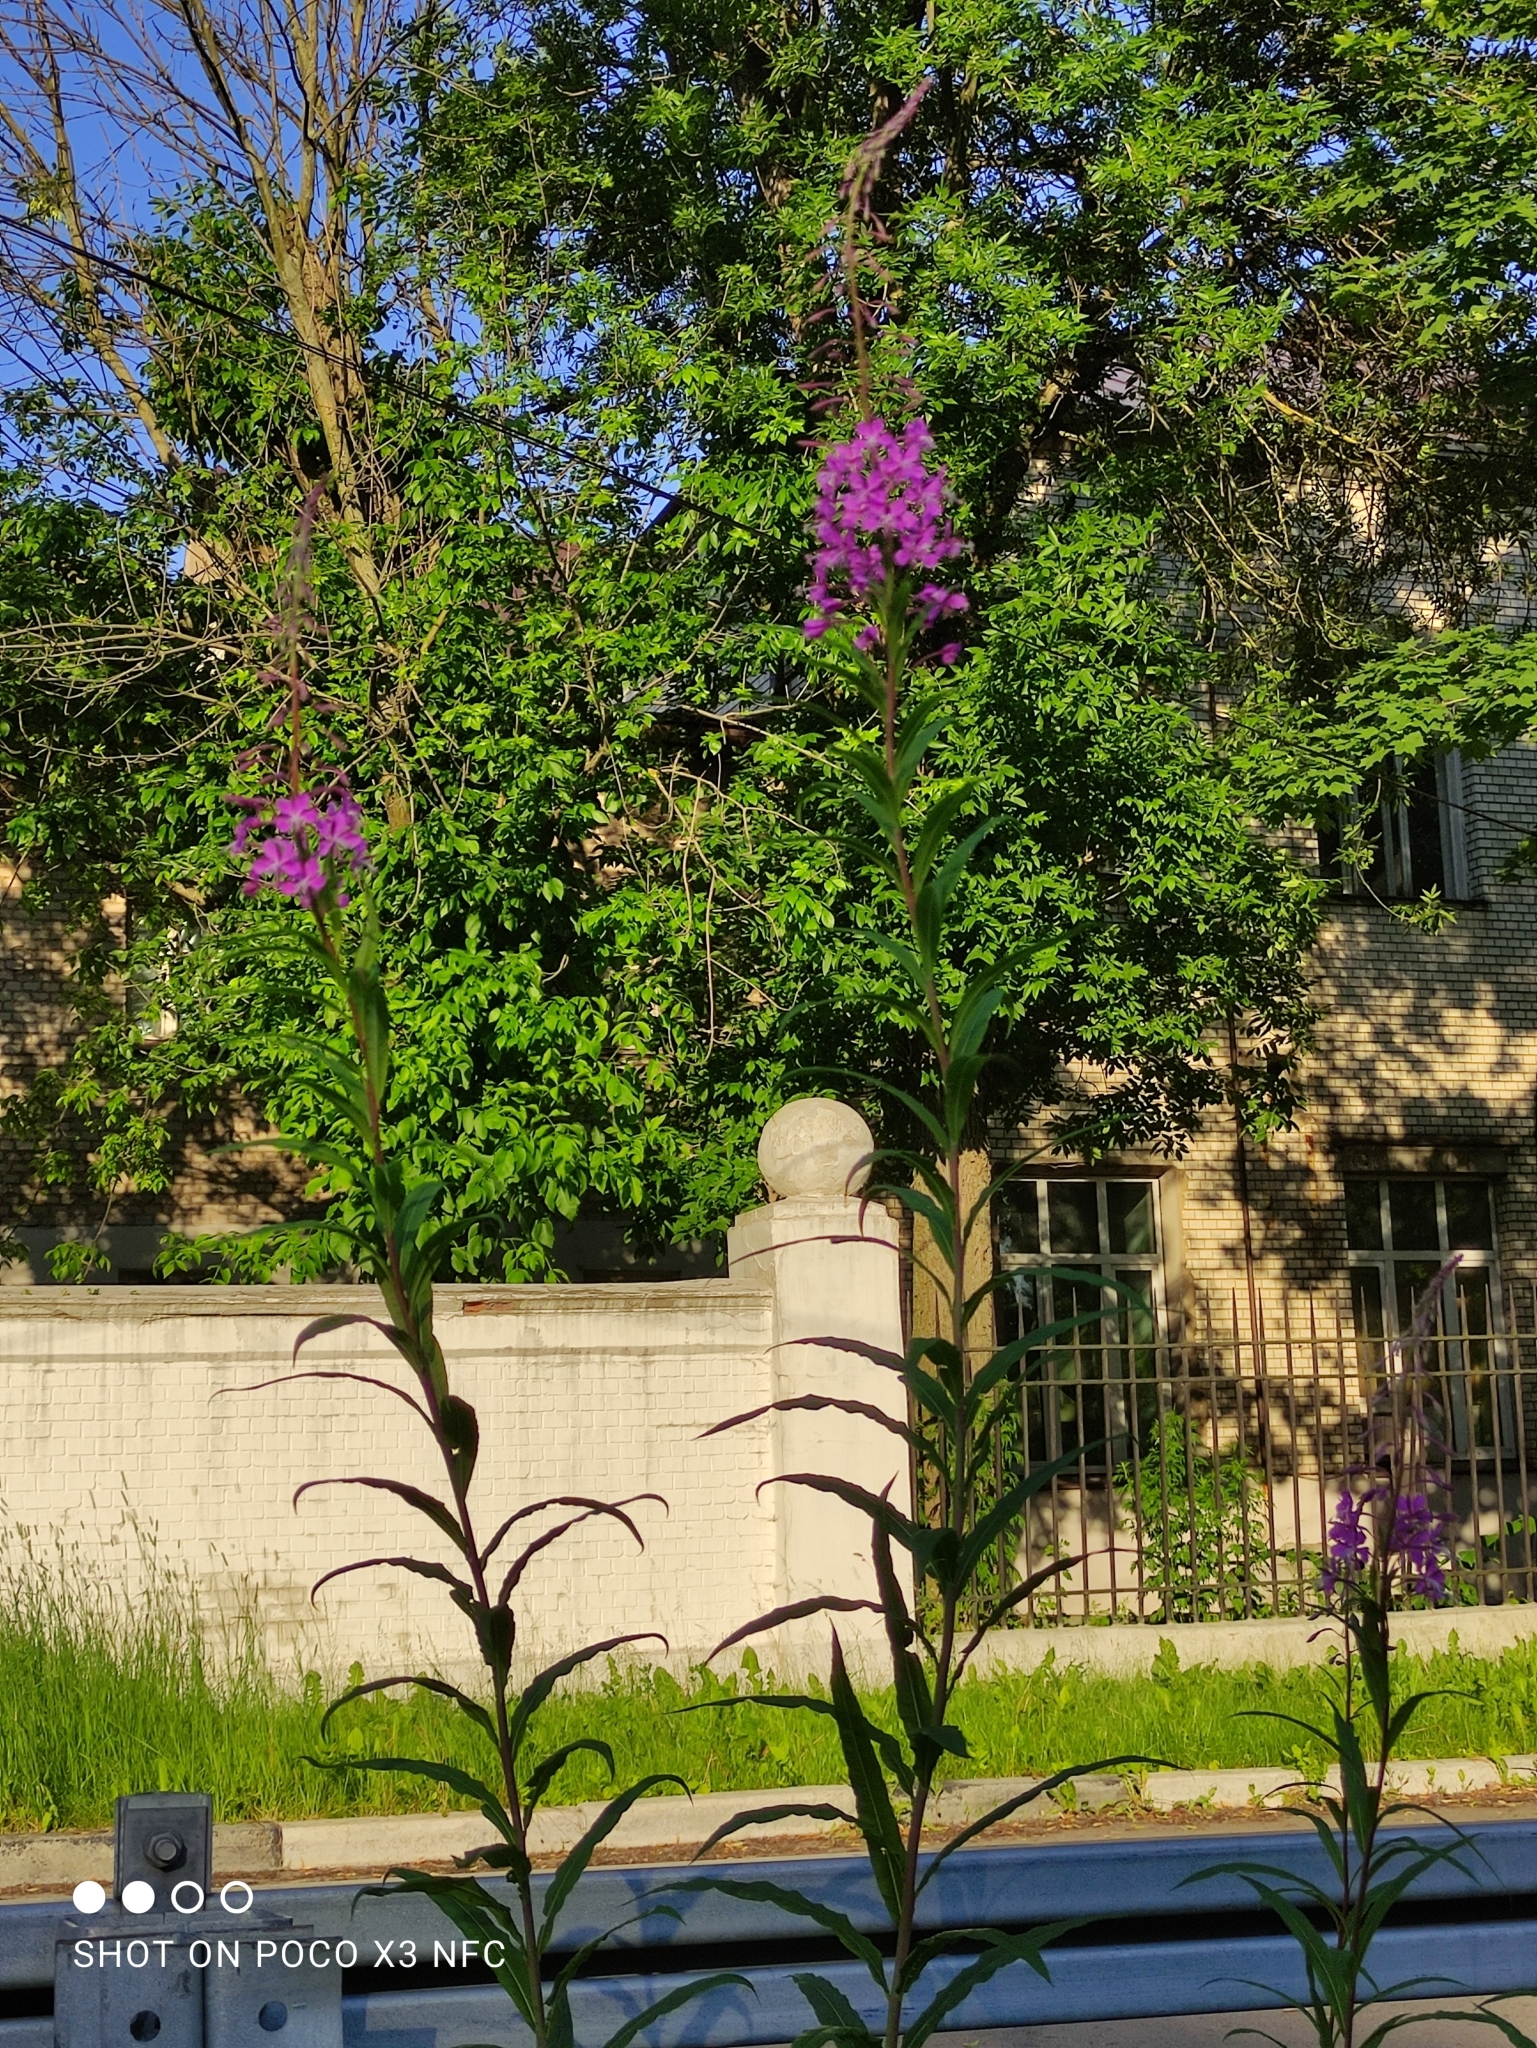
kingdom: Plantae
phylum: Tracheophyta
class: Magnoliopsida
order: Myrtales
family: Onagraceae
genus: Chamaenerion
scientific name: Chamaenerion angustifolium
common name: Fireweed
